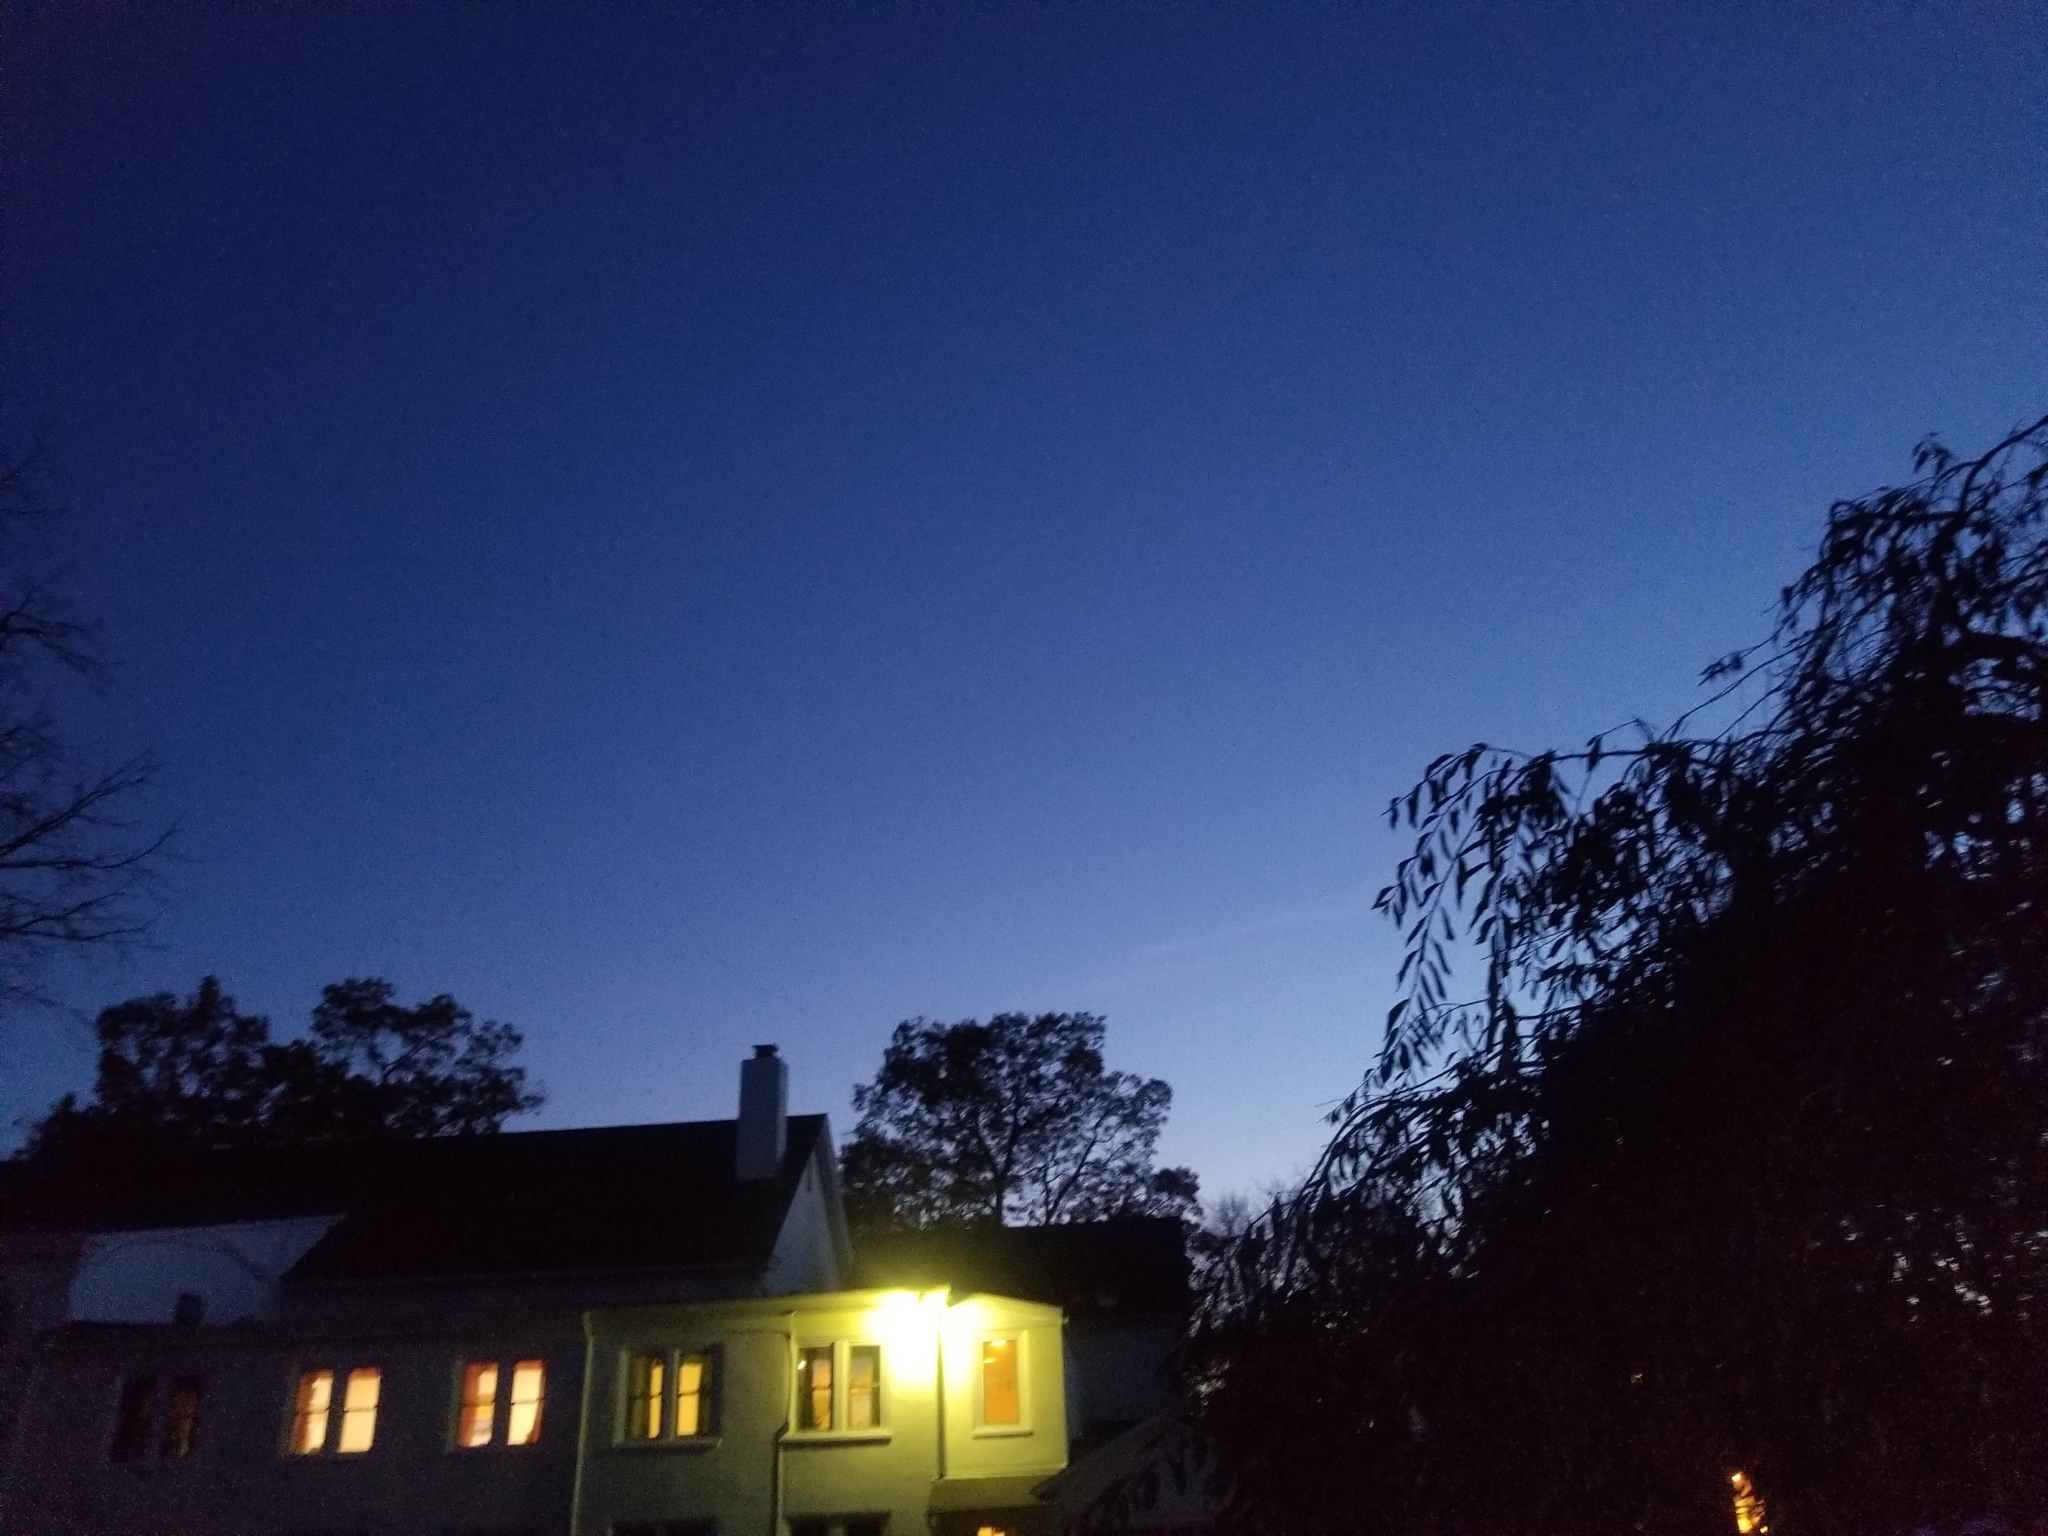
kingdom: Animalia
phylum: Chordata
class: Aves
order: Anseriformes
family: Anatidae
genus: Branta
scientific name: Branta canadensis
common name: Canada goose
